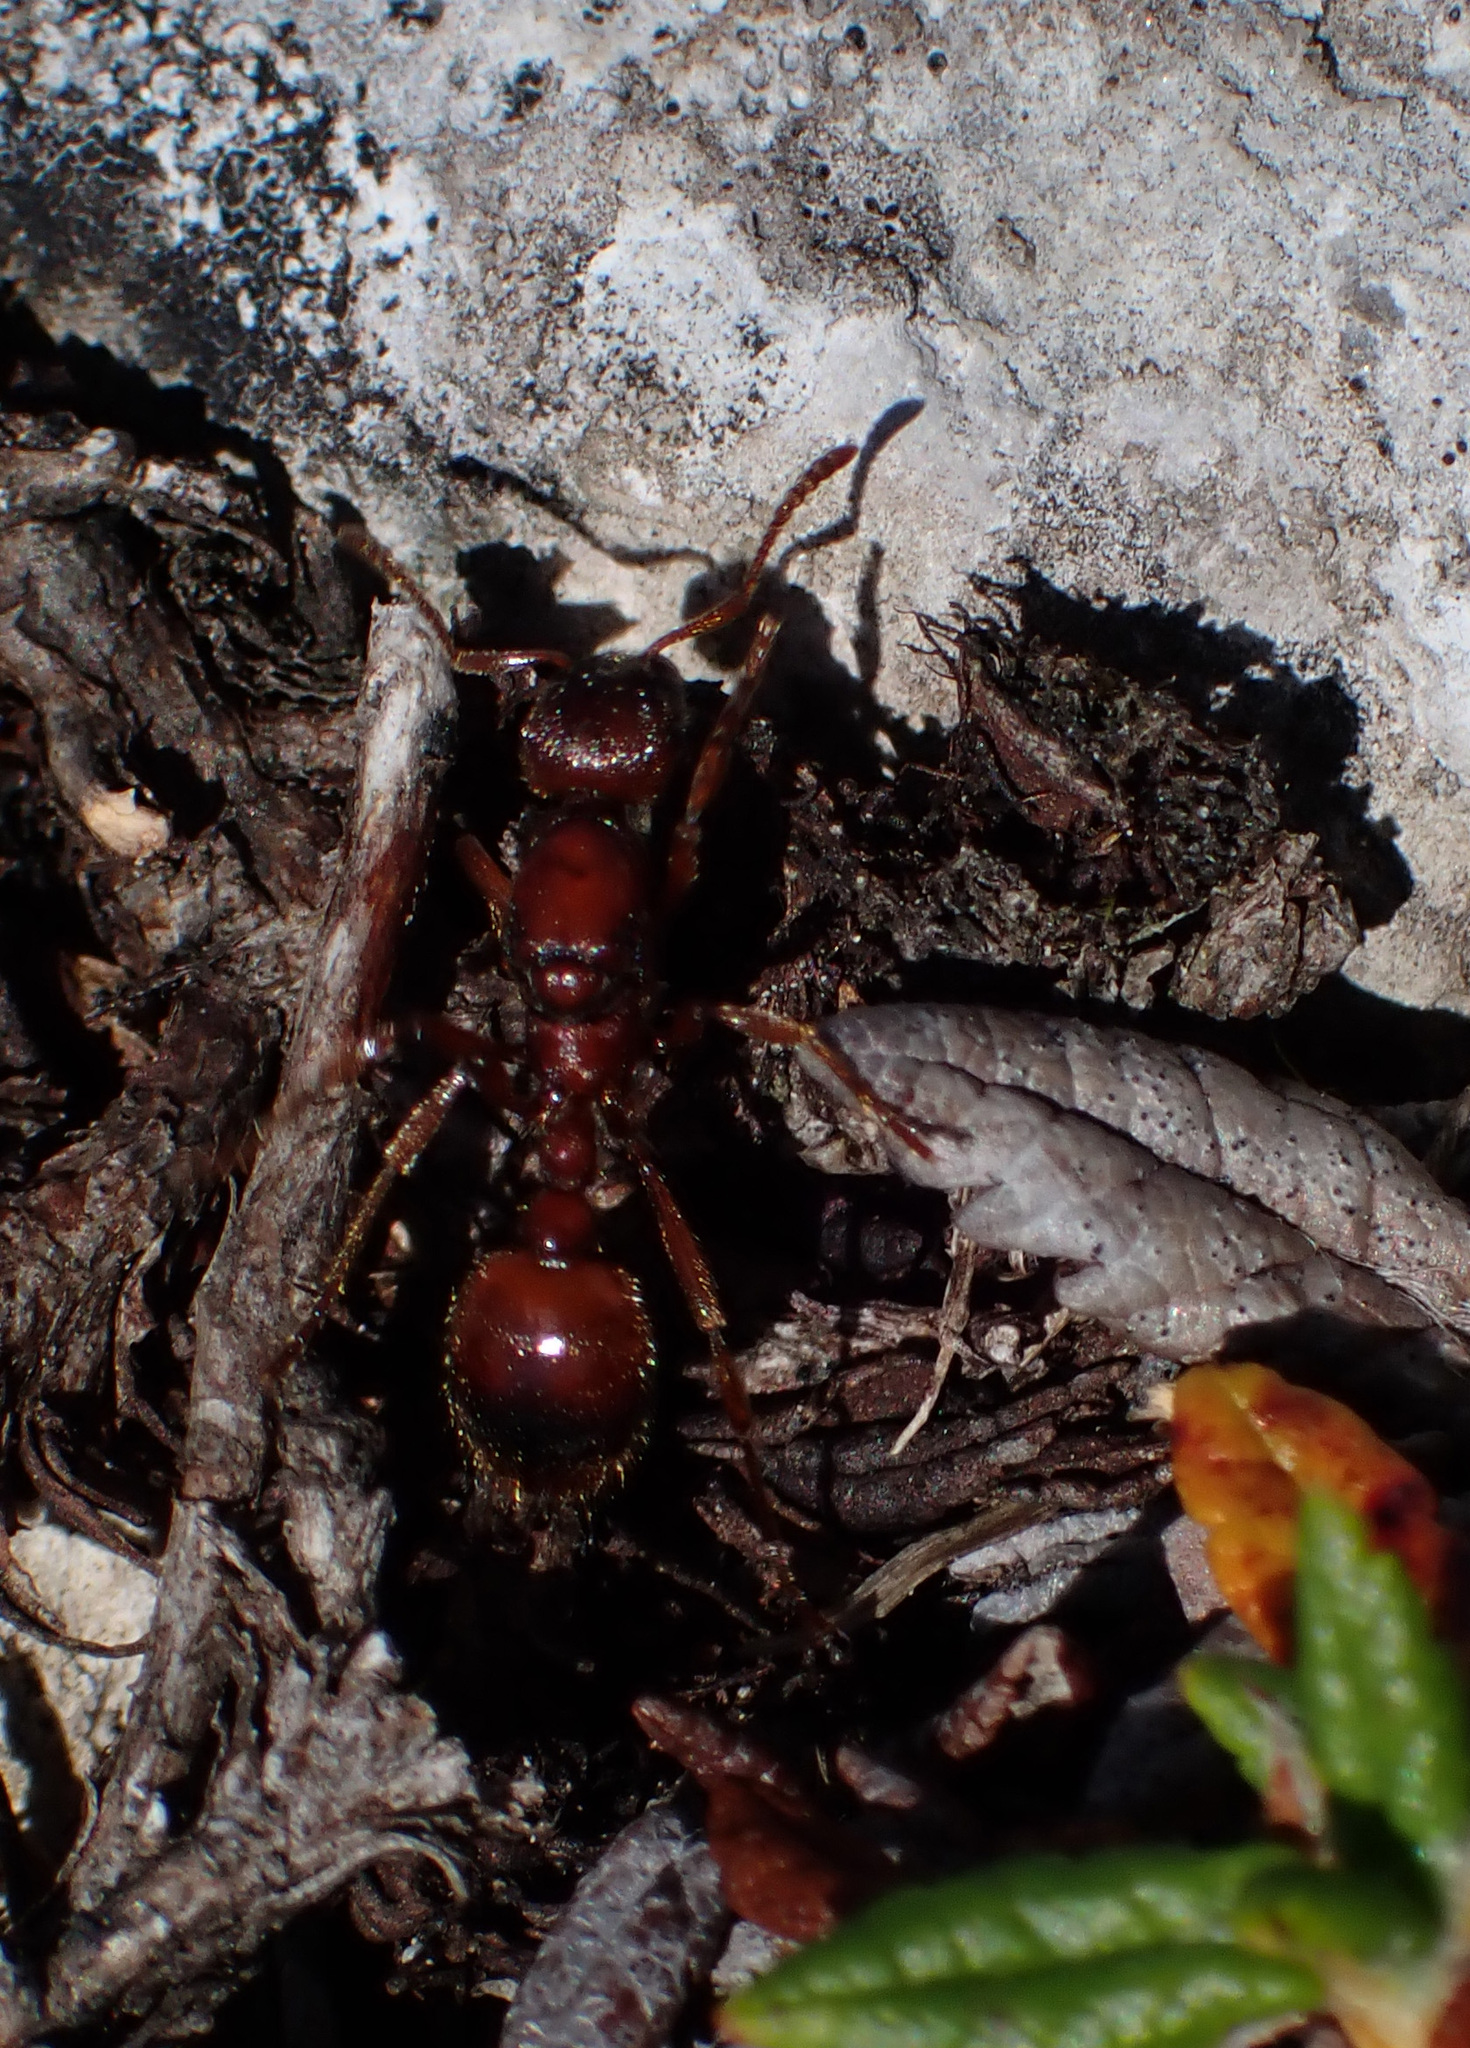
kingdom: Animalia
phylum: Arthropoda
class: Insecta
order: Hymenoptera
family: Formicidae
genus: Manica
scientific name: Manica rubida
